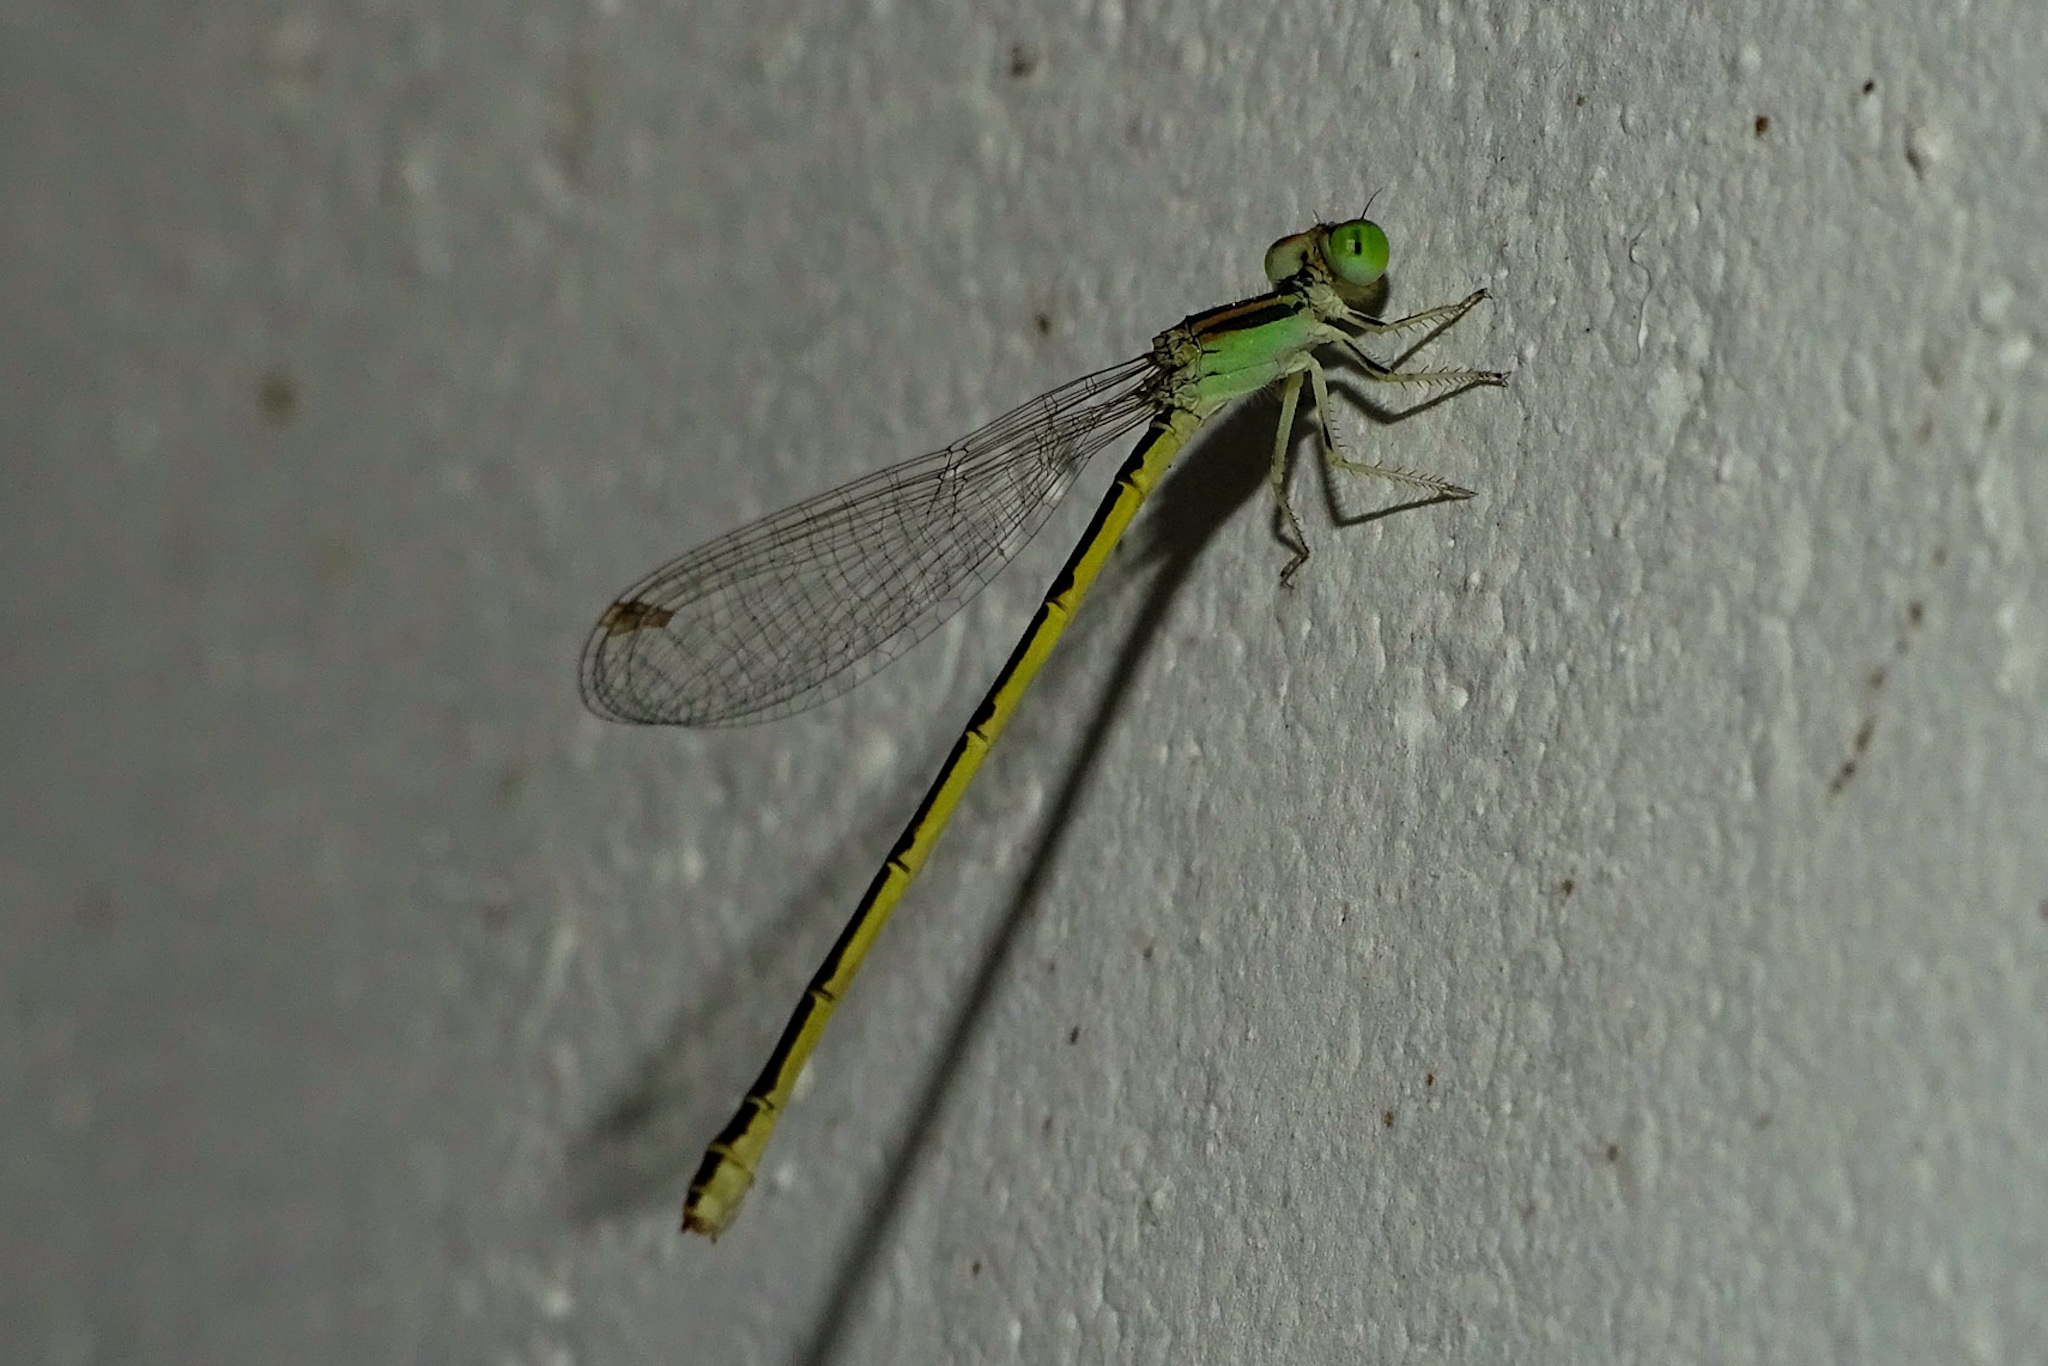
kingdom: Animalia
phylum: Arthropoda
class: Insecta
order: Odonata
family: Coenagrionidae
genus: Ischnura
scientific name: Ischnura rubilio
